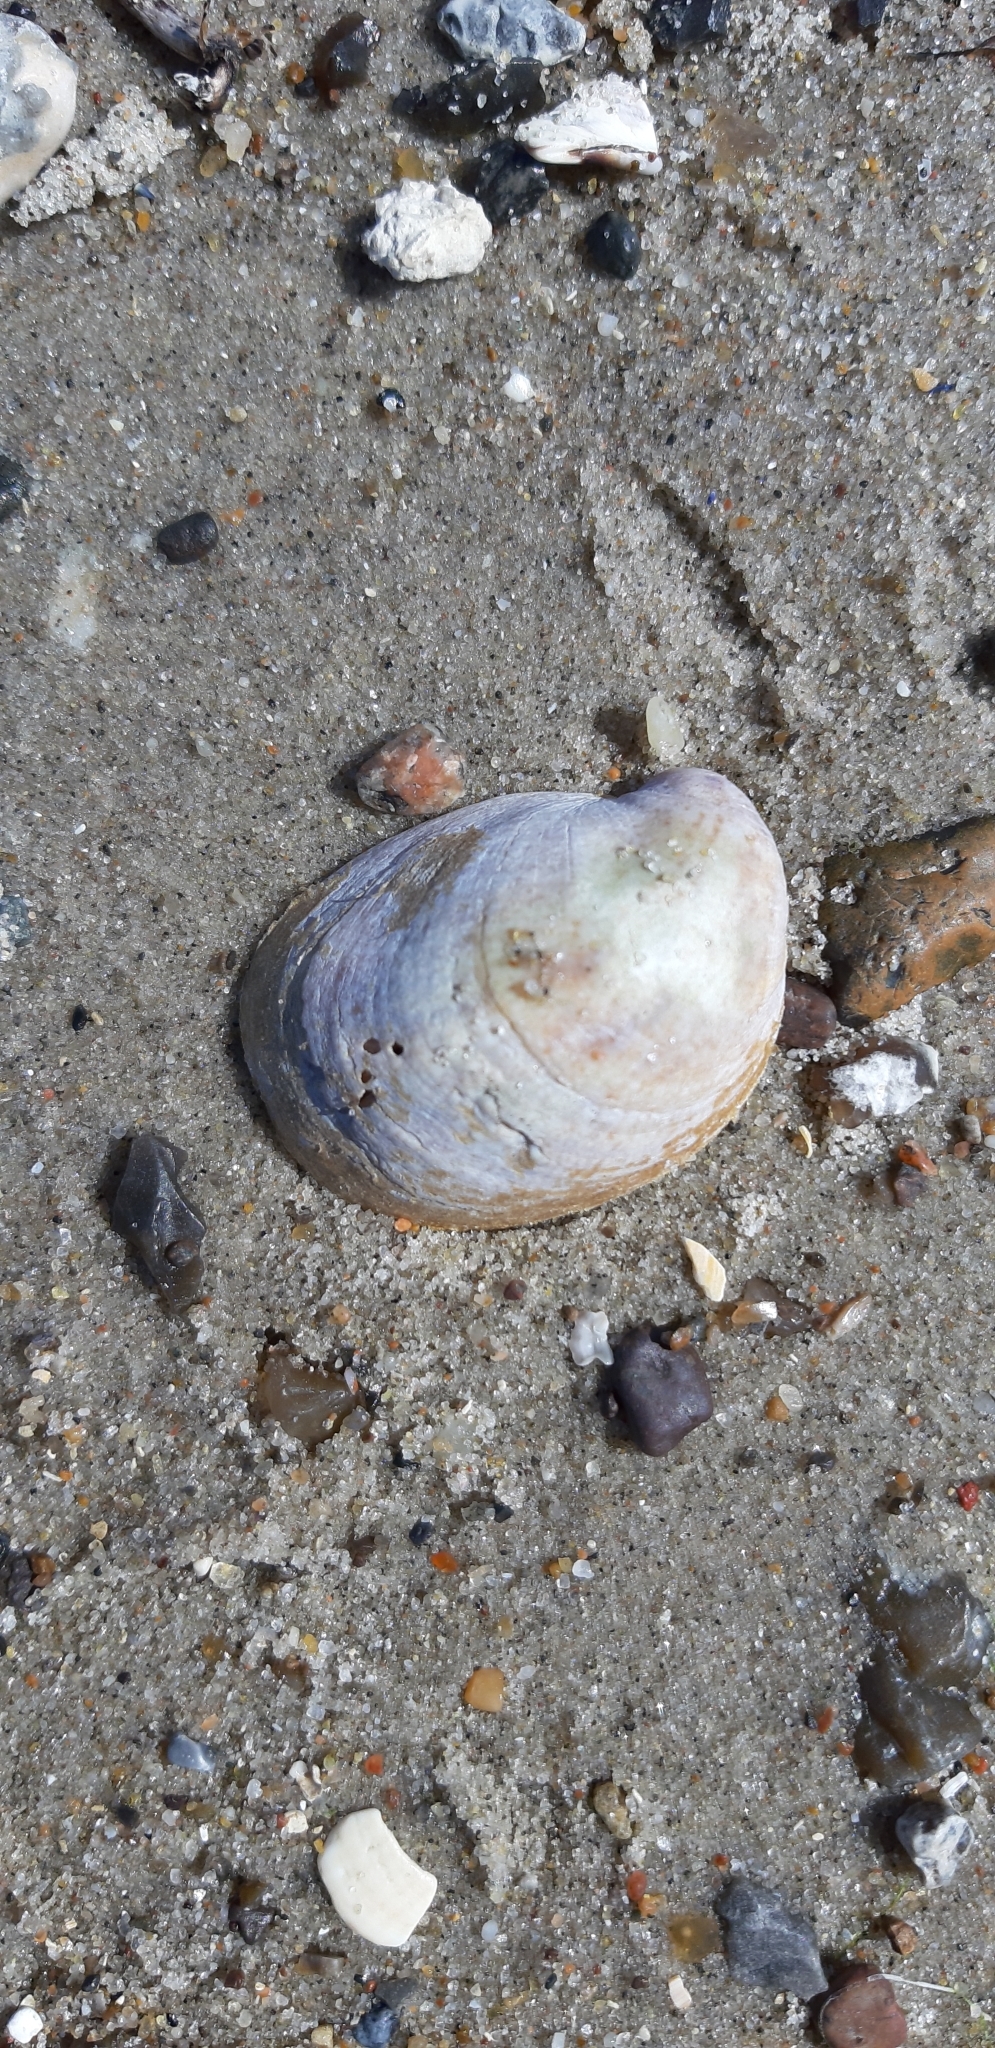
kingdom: Animalia
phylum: Mollusca
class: Gastropoda
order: Littorinimorpha
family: Calyptraeidae
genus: Crepidula
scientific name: Crepidula fornicata
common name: Slipper limpet
